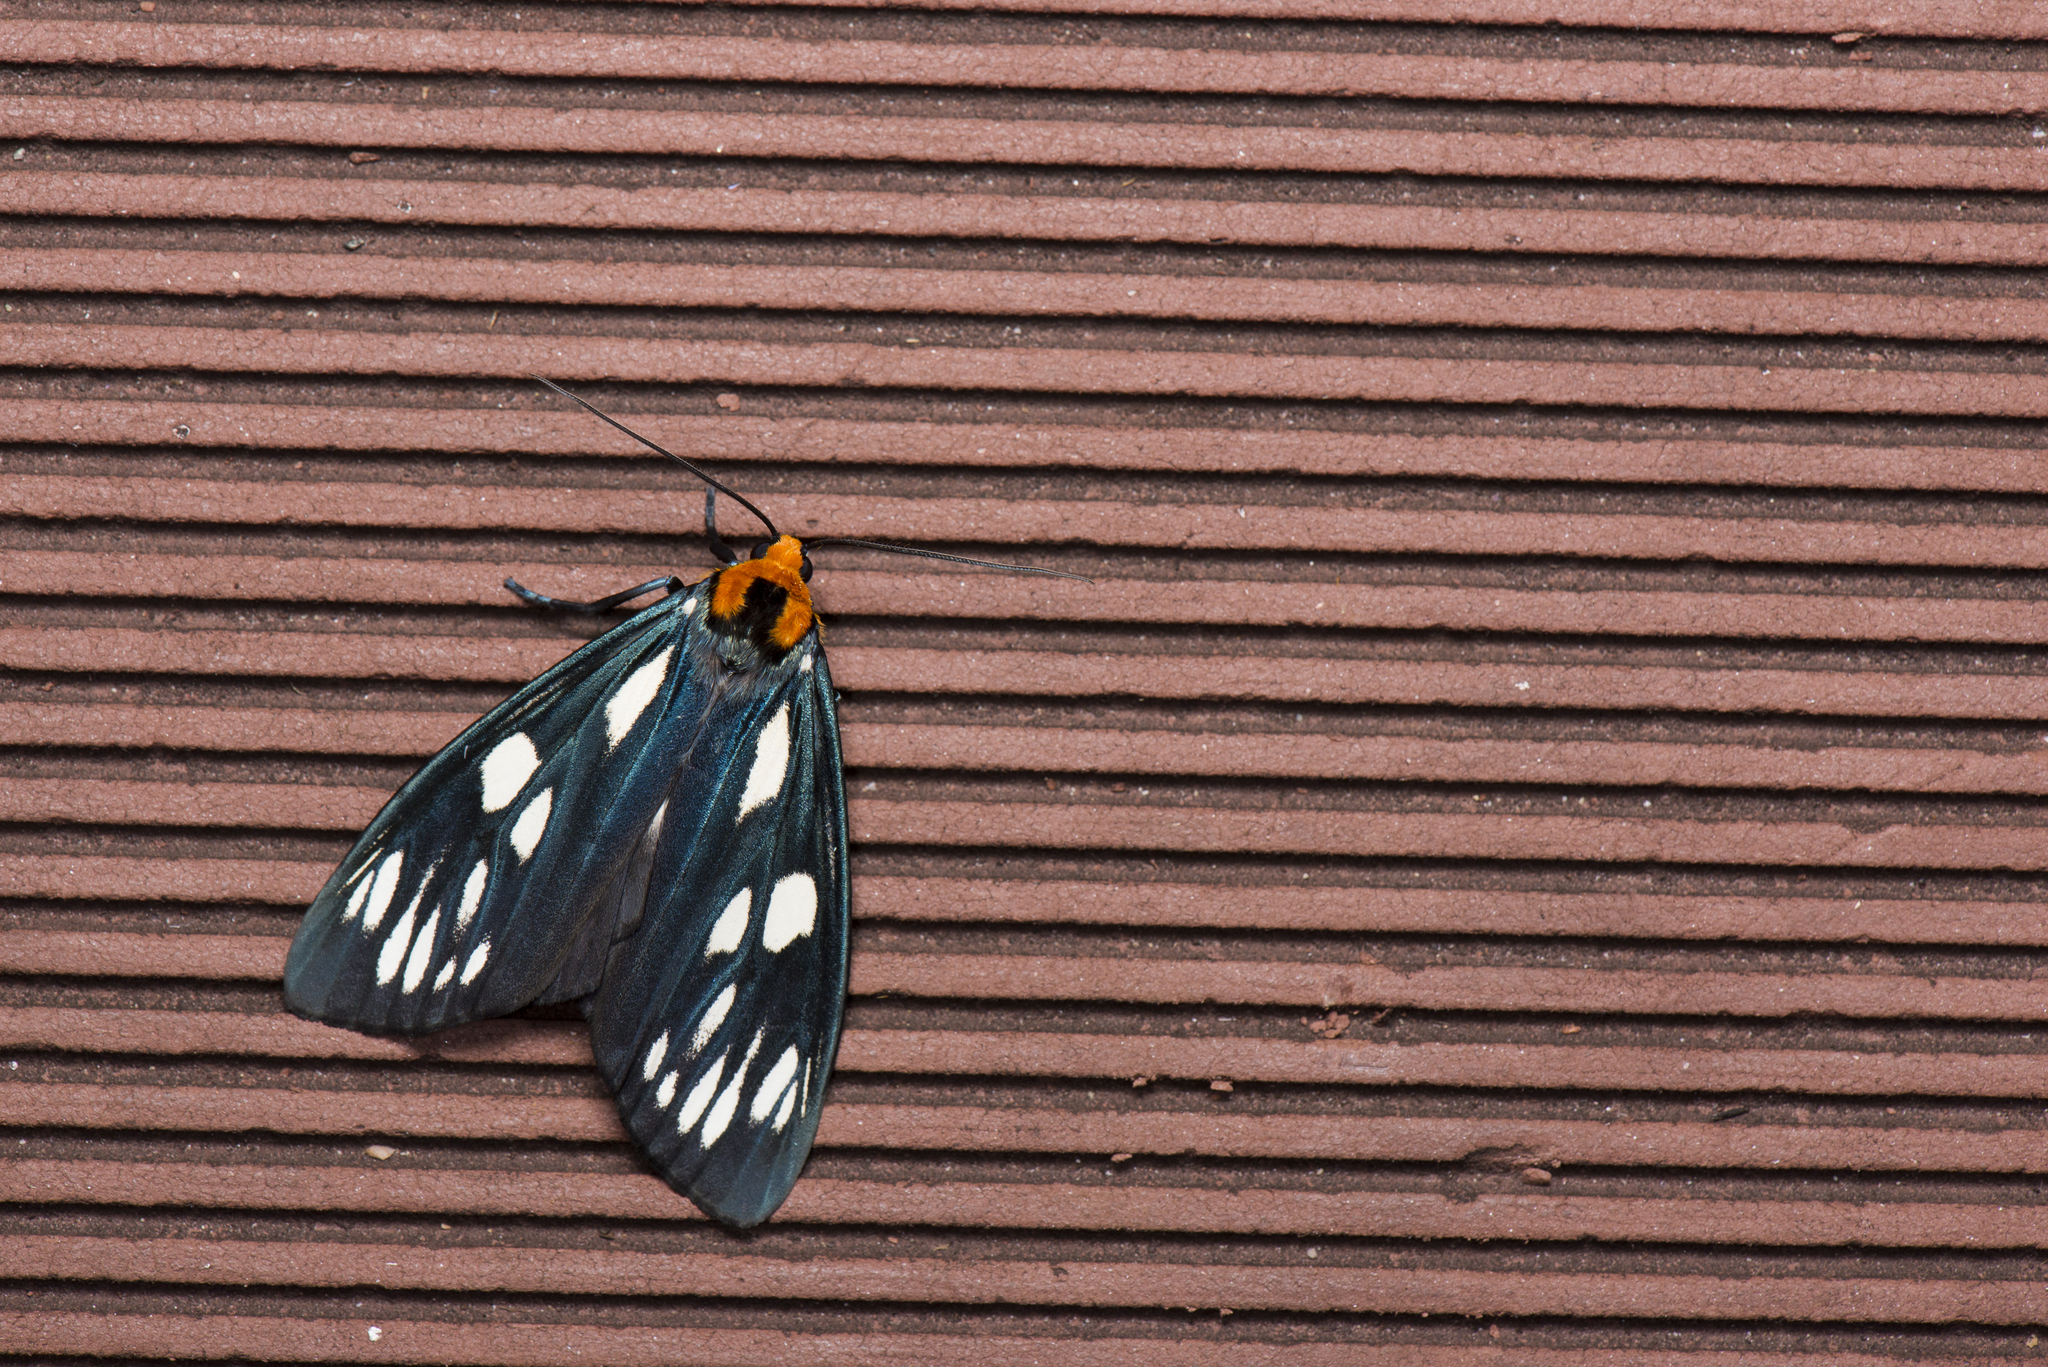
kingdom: Animalia
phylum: Arthropoda
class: Insecta
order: Lepidoptera
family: Erebidae
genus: Macrobrochis
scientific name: Macrobrochis gigas
